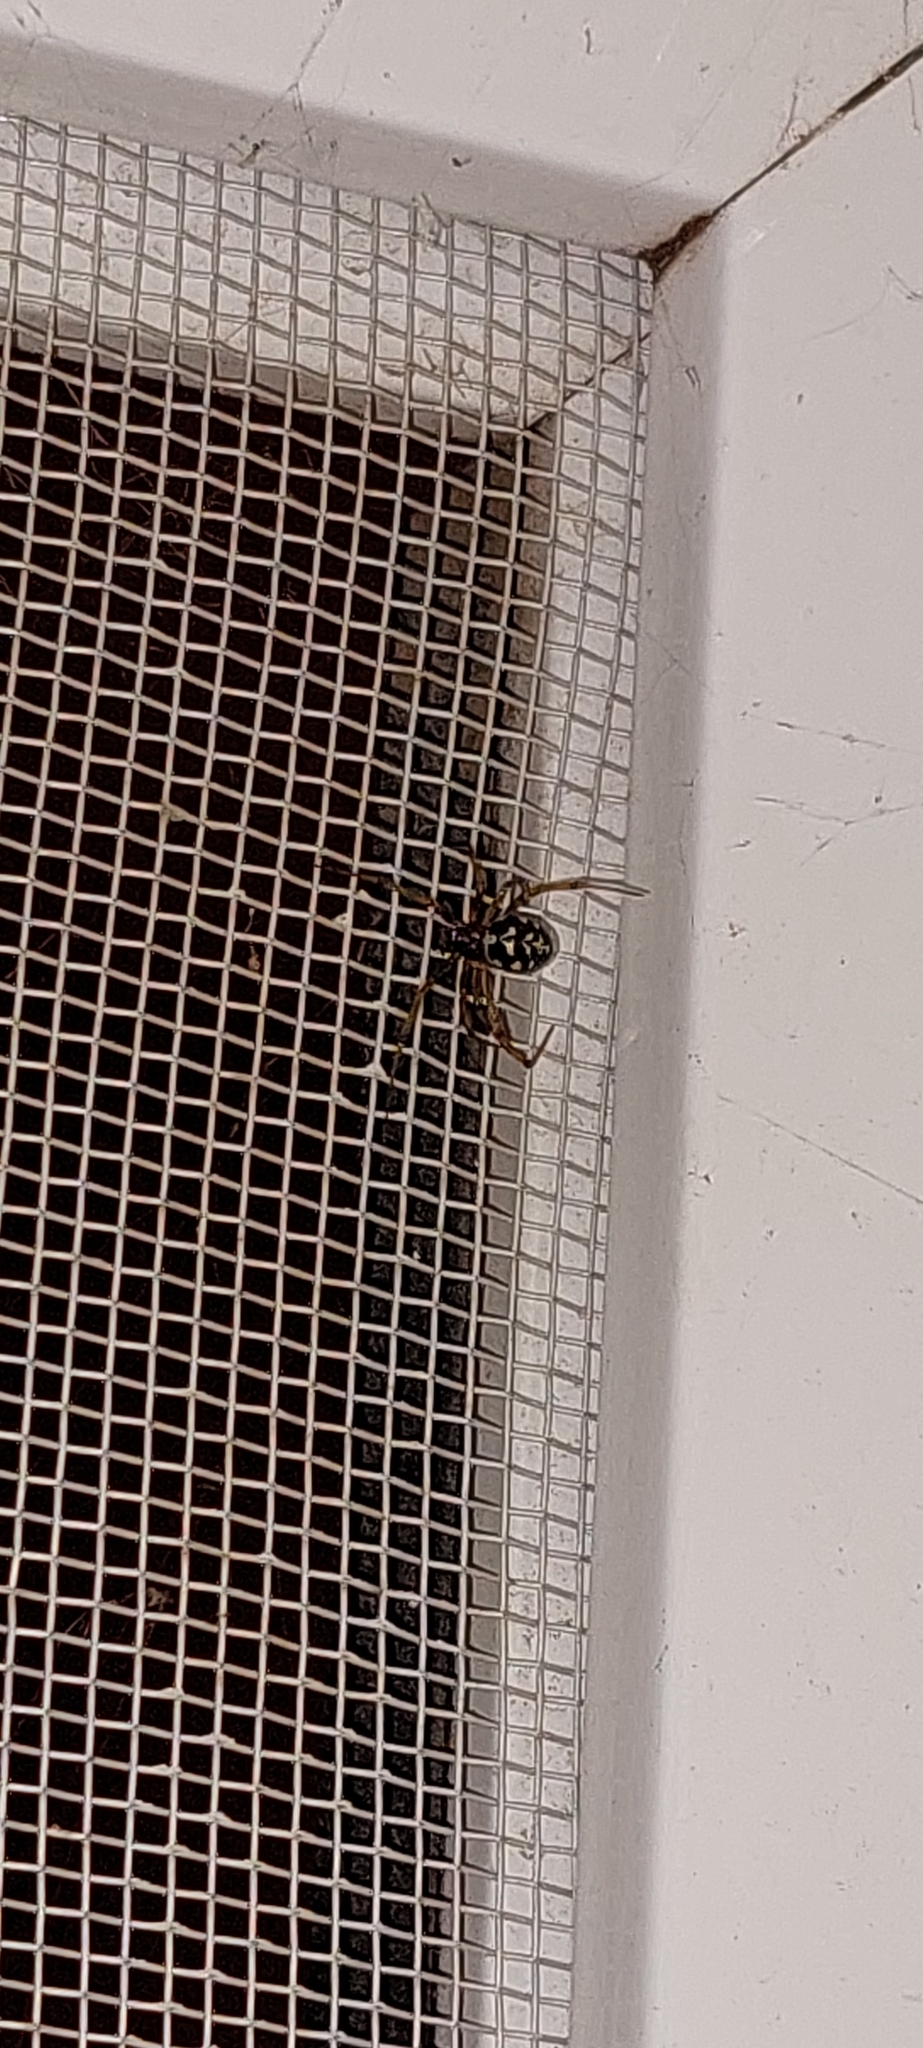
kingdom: Animalia
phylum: Arthropoda
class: Arachnida
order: Araneae
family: Theridiidae
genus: Steatoda
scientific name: Steatoda triangulosa
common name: Triangulate bud spider
